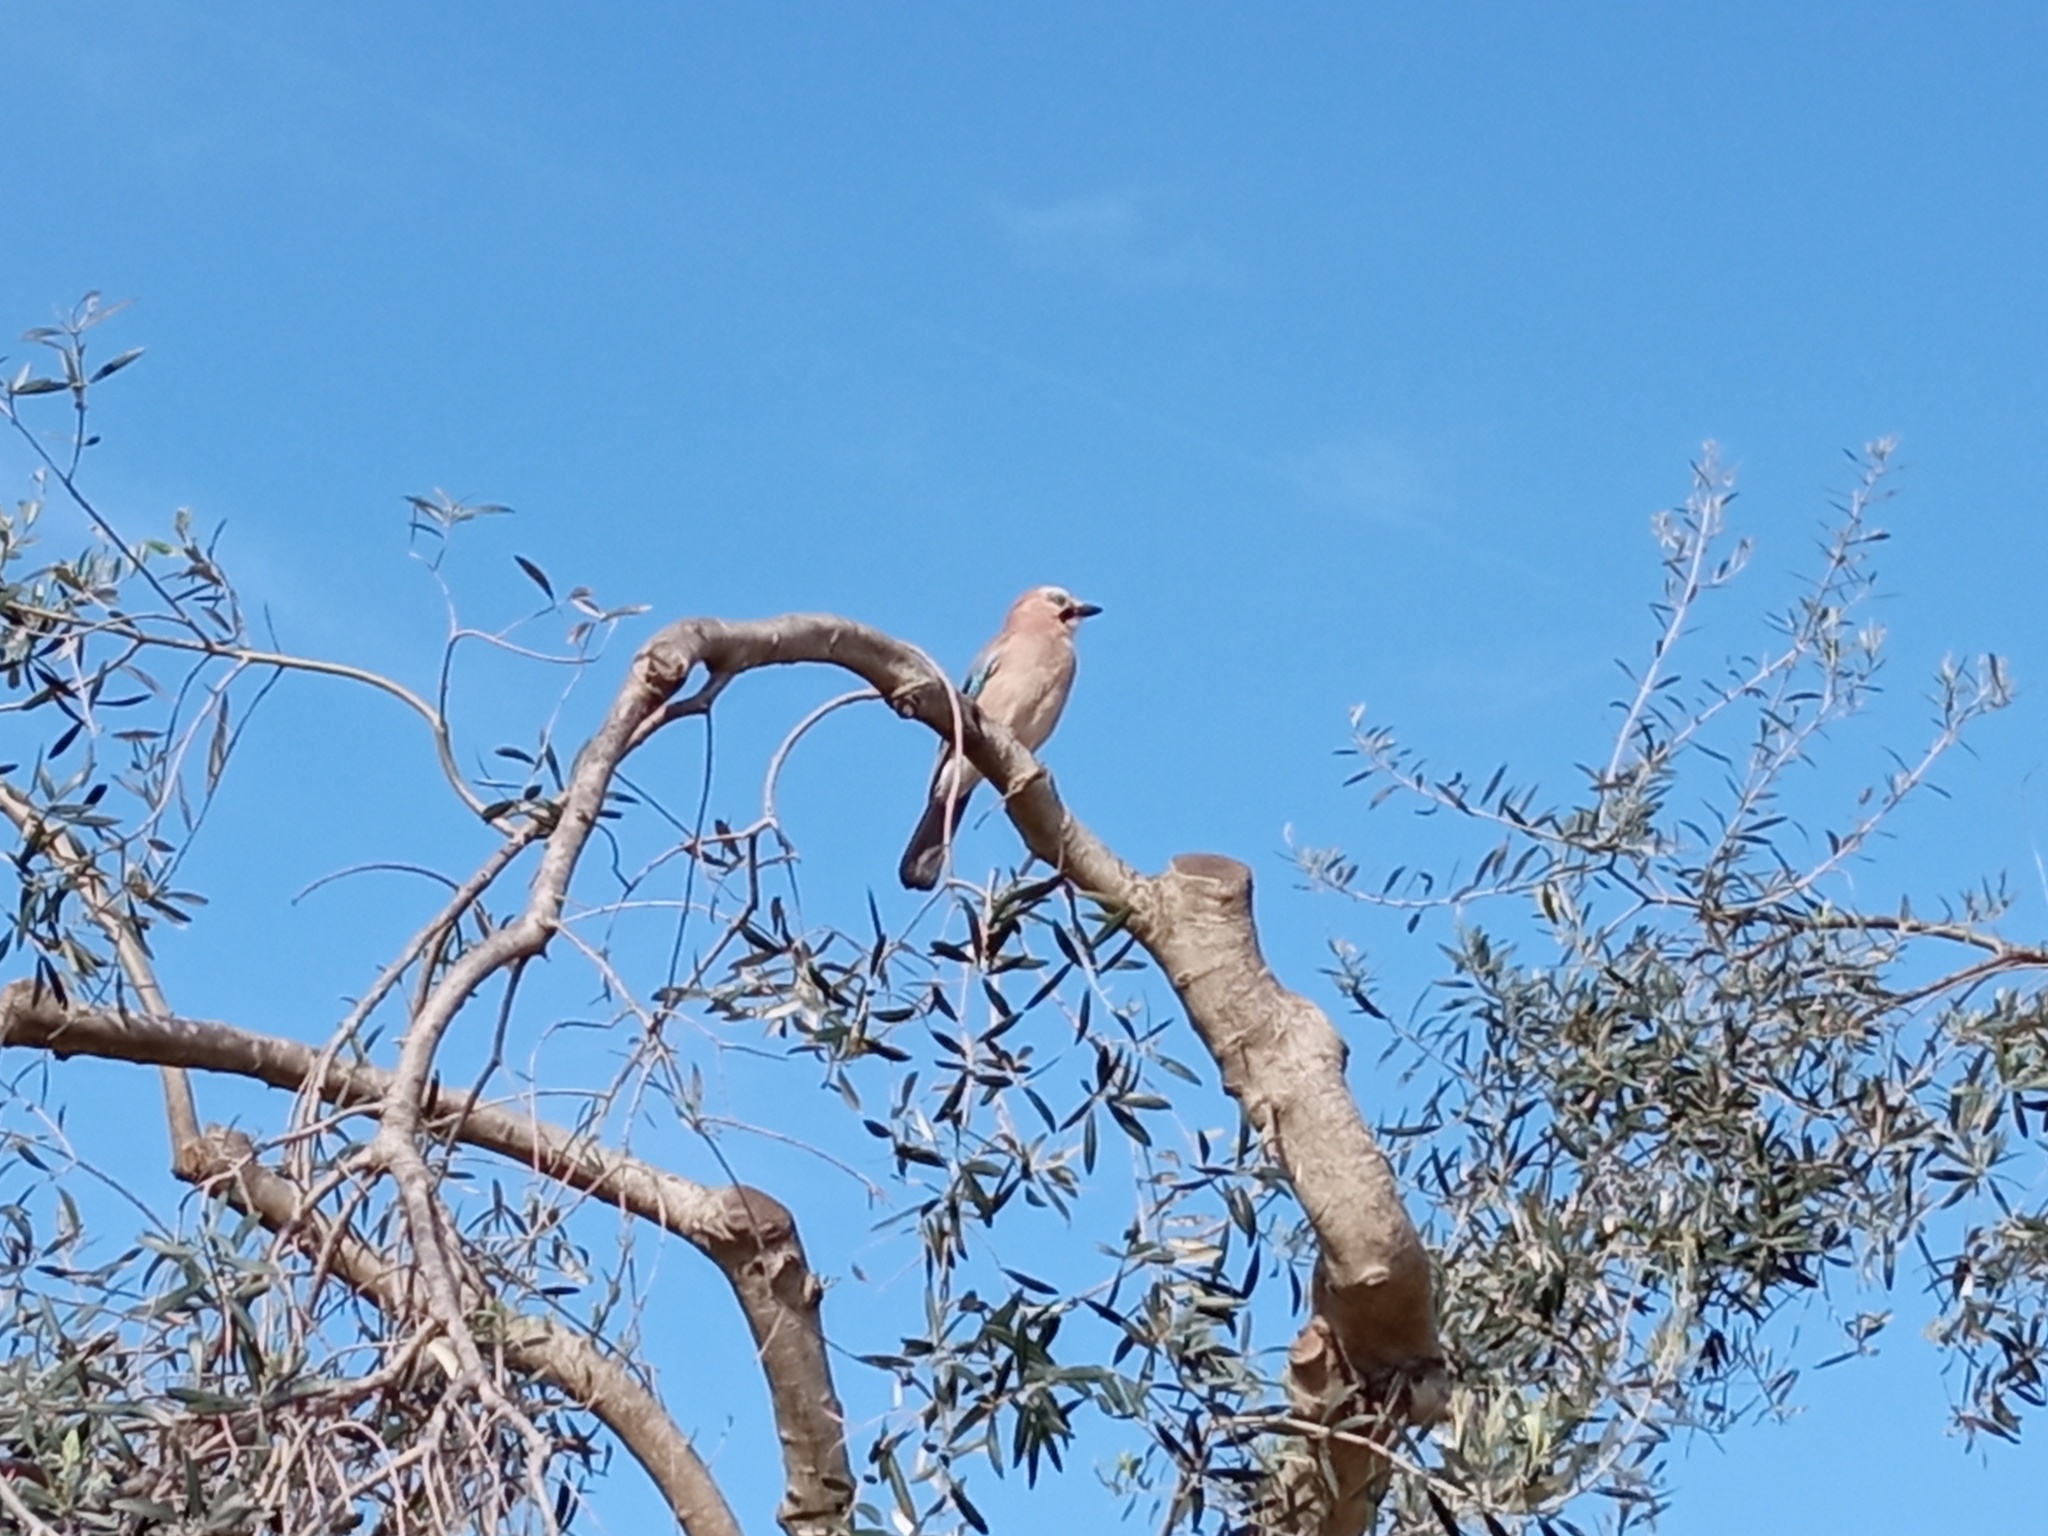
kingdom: Animalia
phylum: Chordata
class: Aves
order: Passeriformes
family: Corvidae
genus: Garrulus
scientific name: Garrulus glandarius
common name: Eurasian jay
